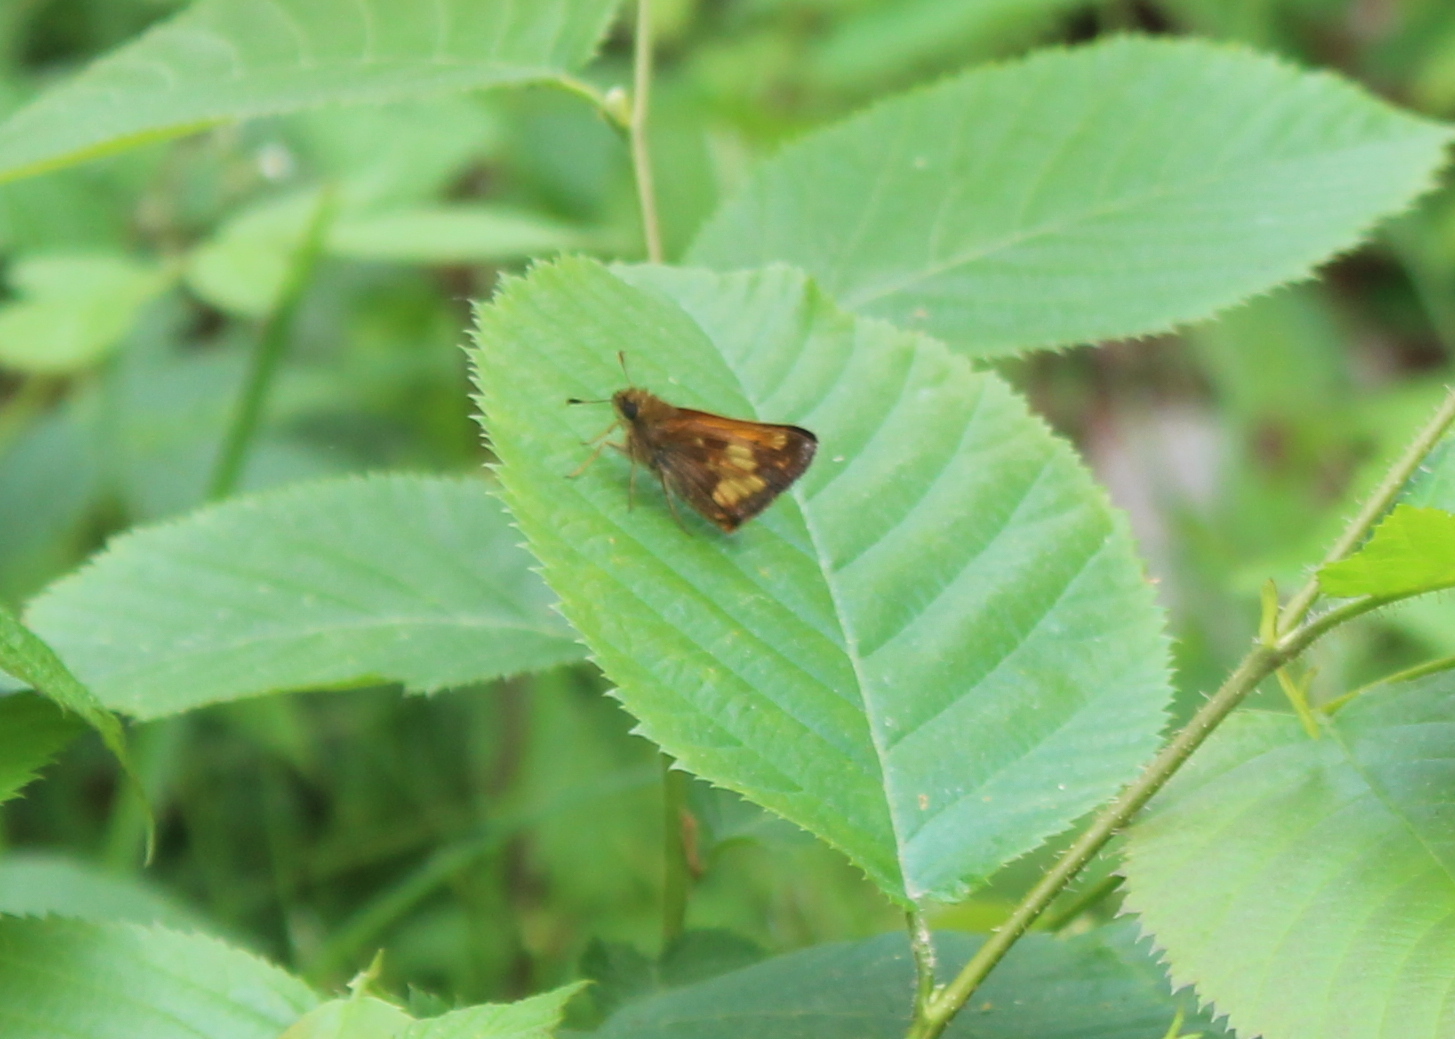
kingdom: Animalia
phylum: Arthropoda
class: Insecta
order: Lepidoptera
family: Hesperiidae
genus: Lon
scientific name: Lon hobomok
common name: Hobomok skipper
